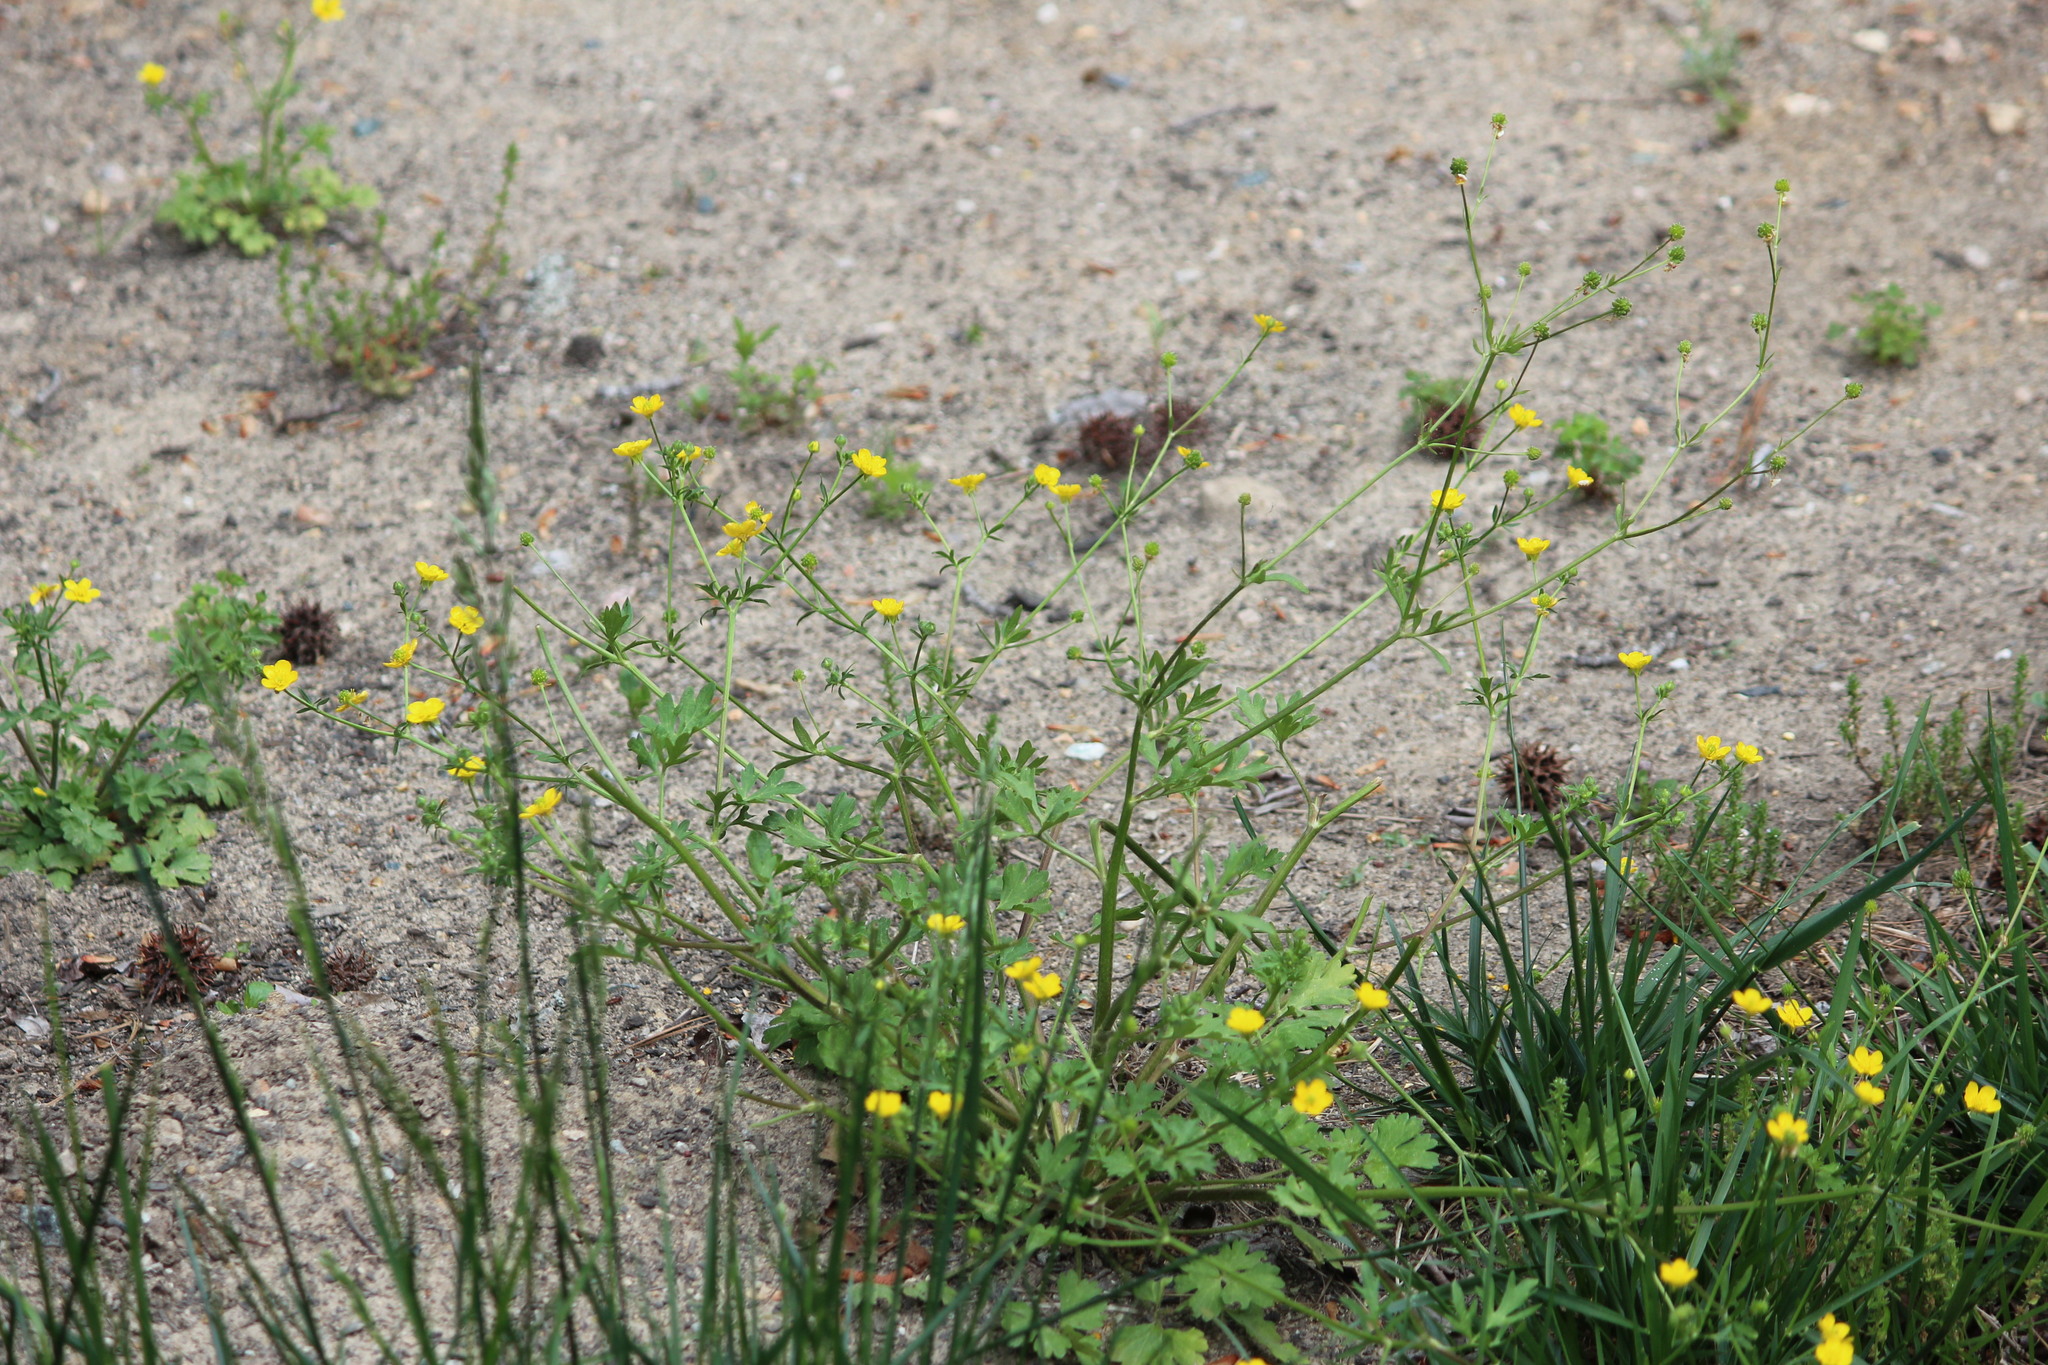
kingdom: Plantae
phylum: Tracheophyta
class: Magnoliopsida
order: Ranunculales
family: Ranunculaceae
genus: Ranunculus
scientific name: Ranunculus acris
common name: Meadow buttercup
